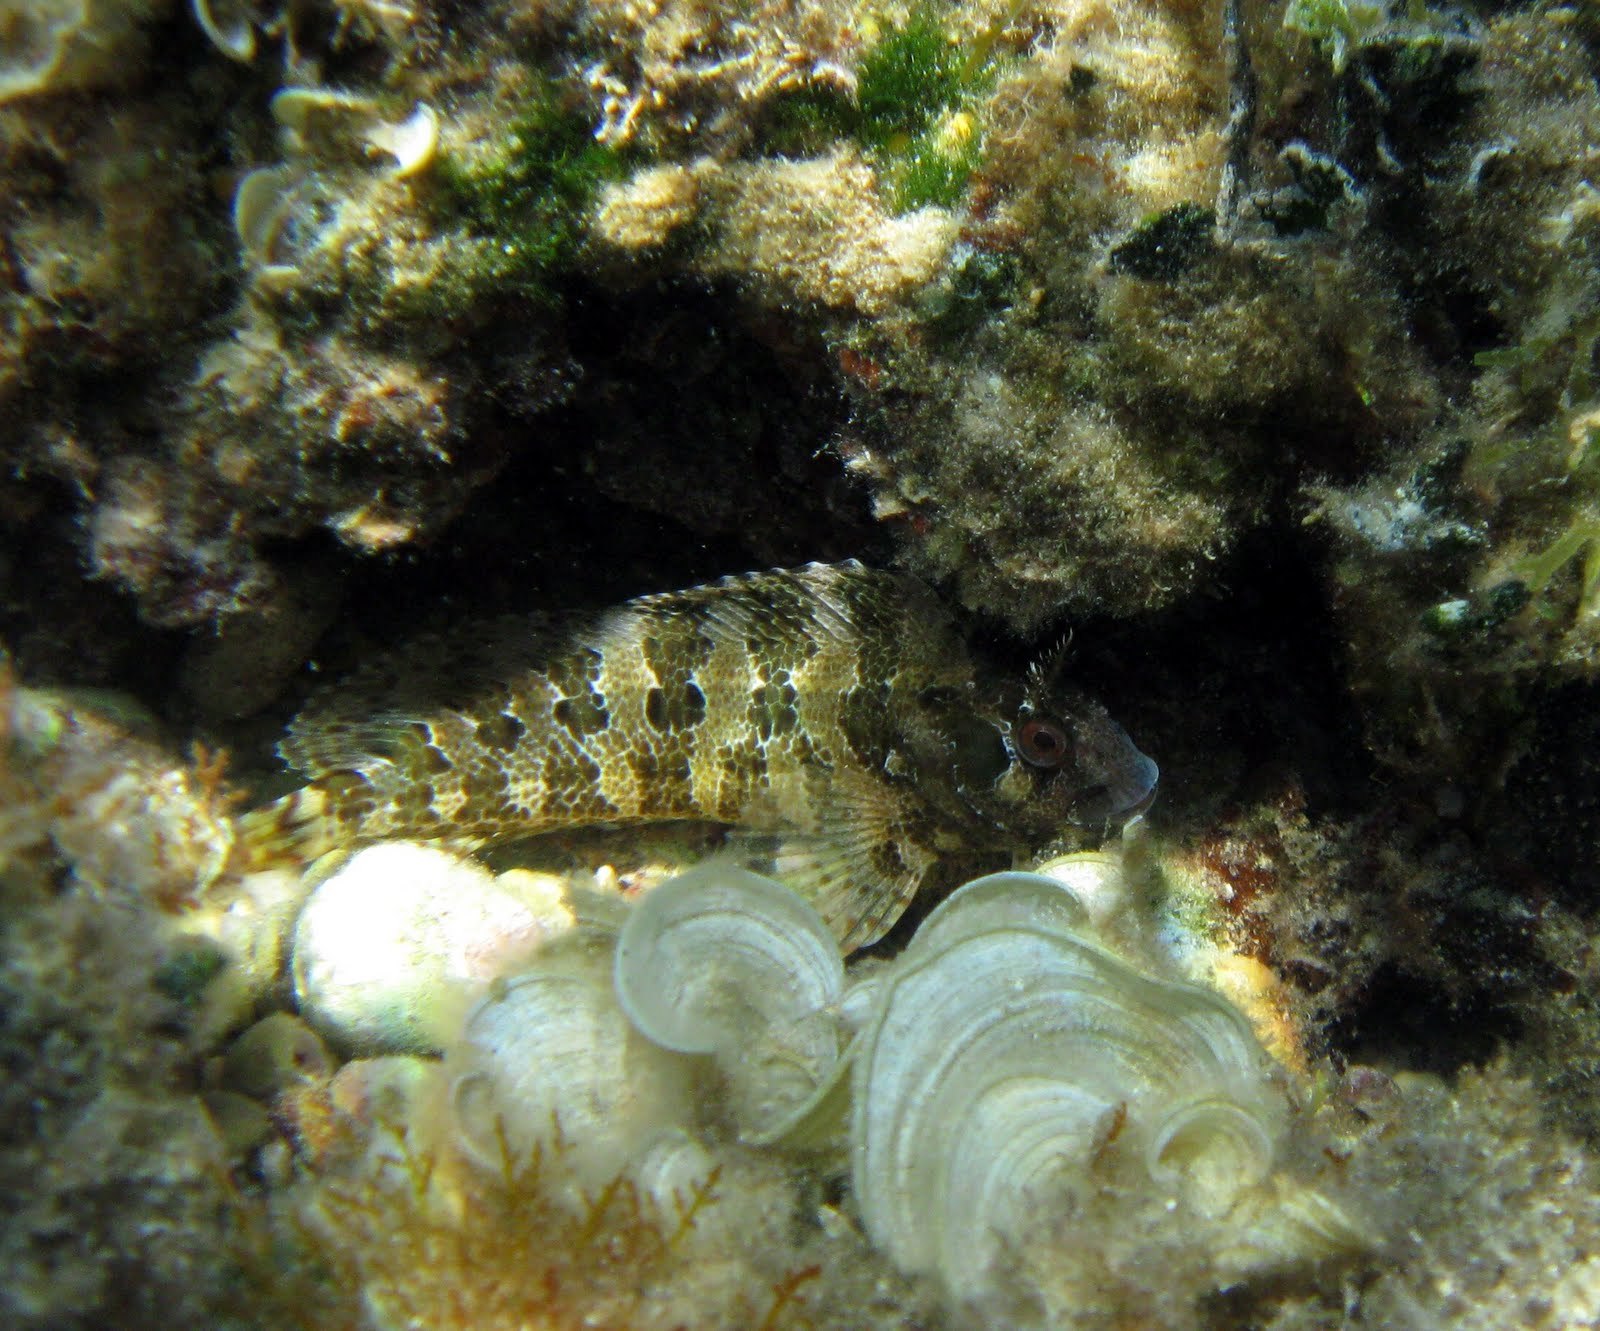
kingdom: Animalia
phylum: Chordata
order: Perciformes
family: Blenniidae
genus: Parablennius
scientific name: Parablennius gattorugine
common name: Tompot blenny
